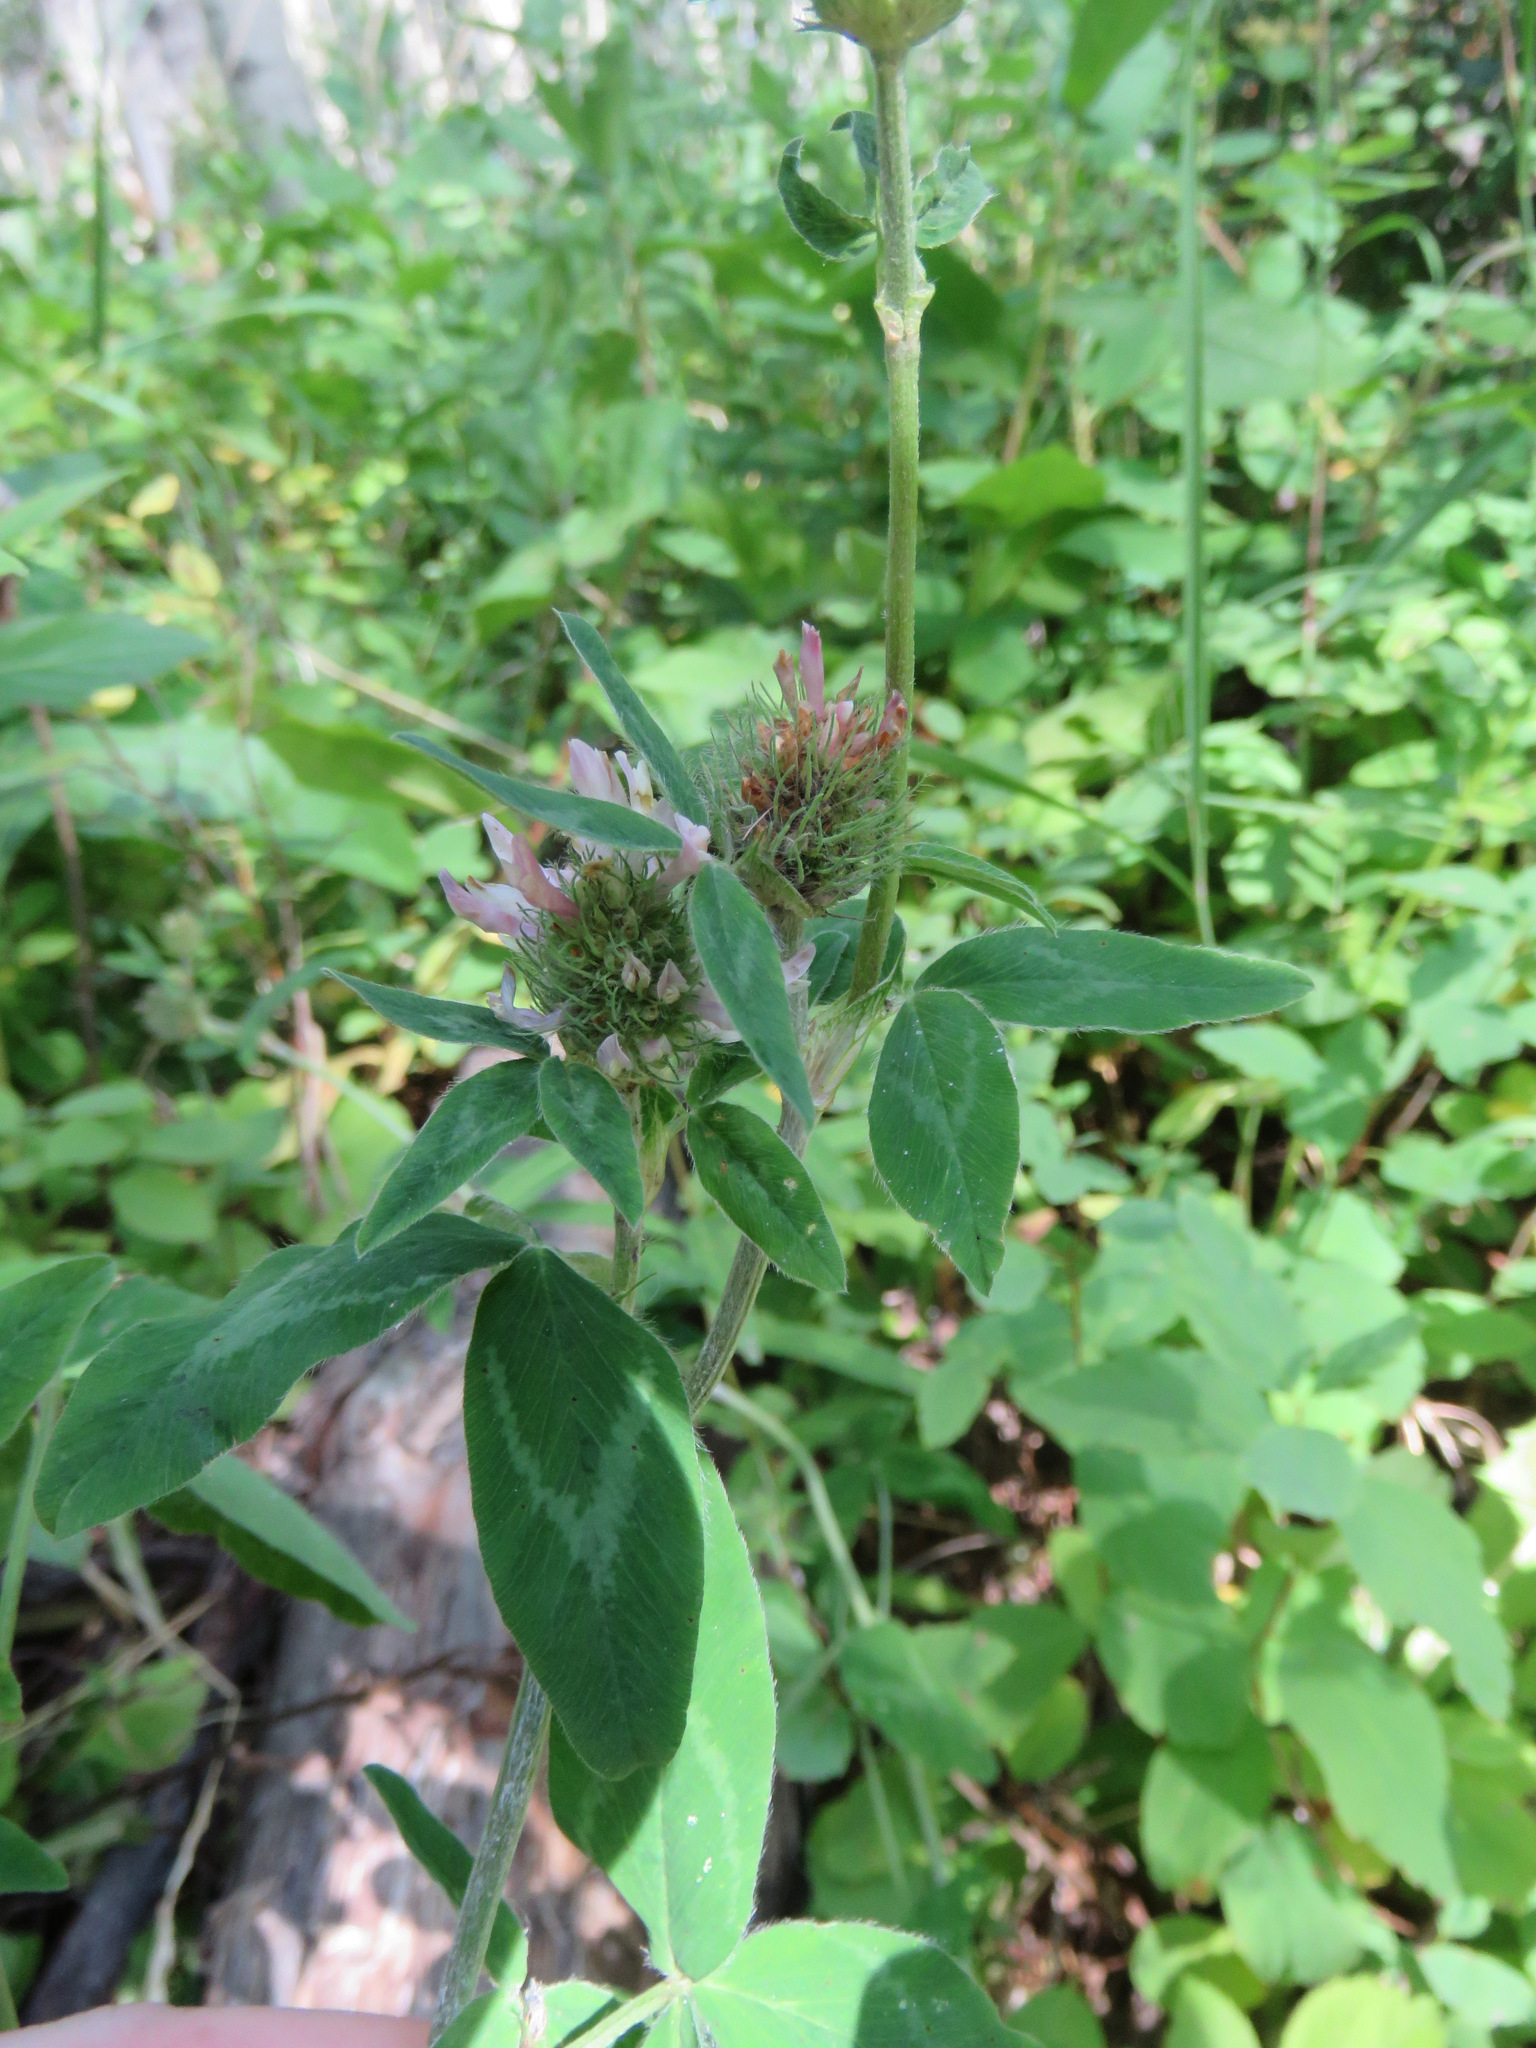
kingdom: Plantae
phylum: Tracheophyta
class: Magnoliopsida
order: Fabales
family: Fabaceae
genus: Trifolium
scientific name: Trifolium pratense
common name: Red clover
